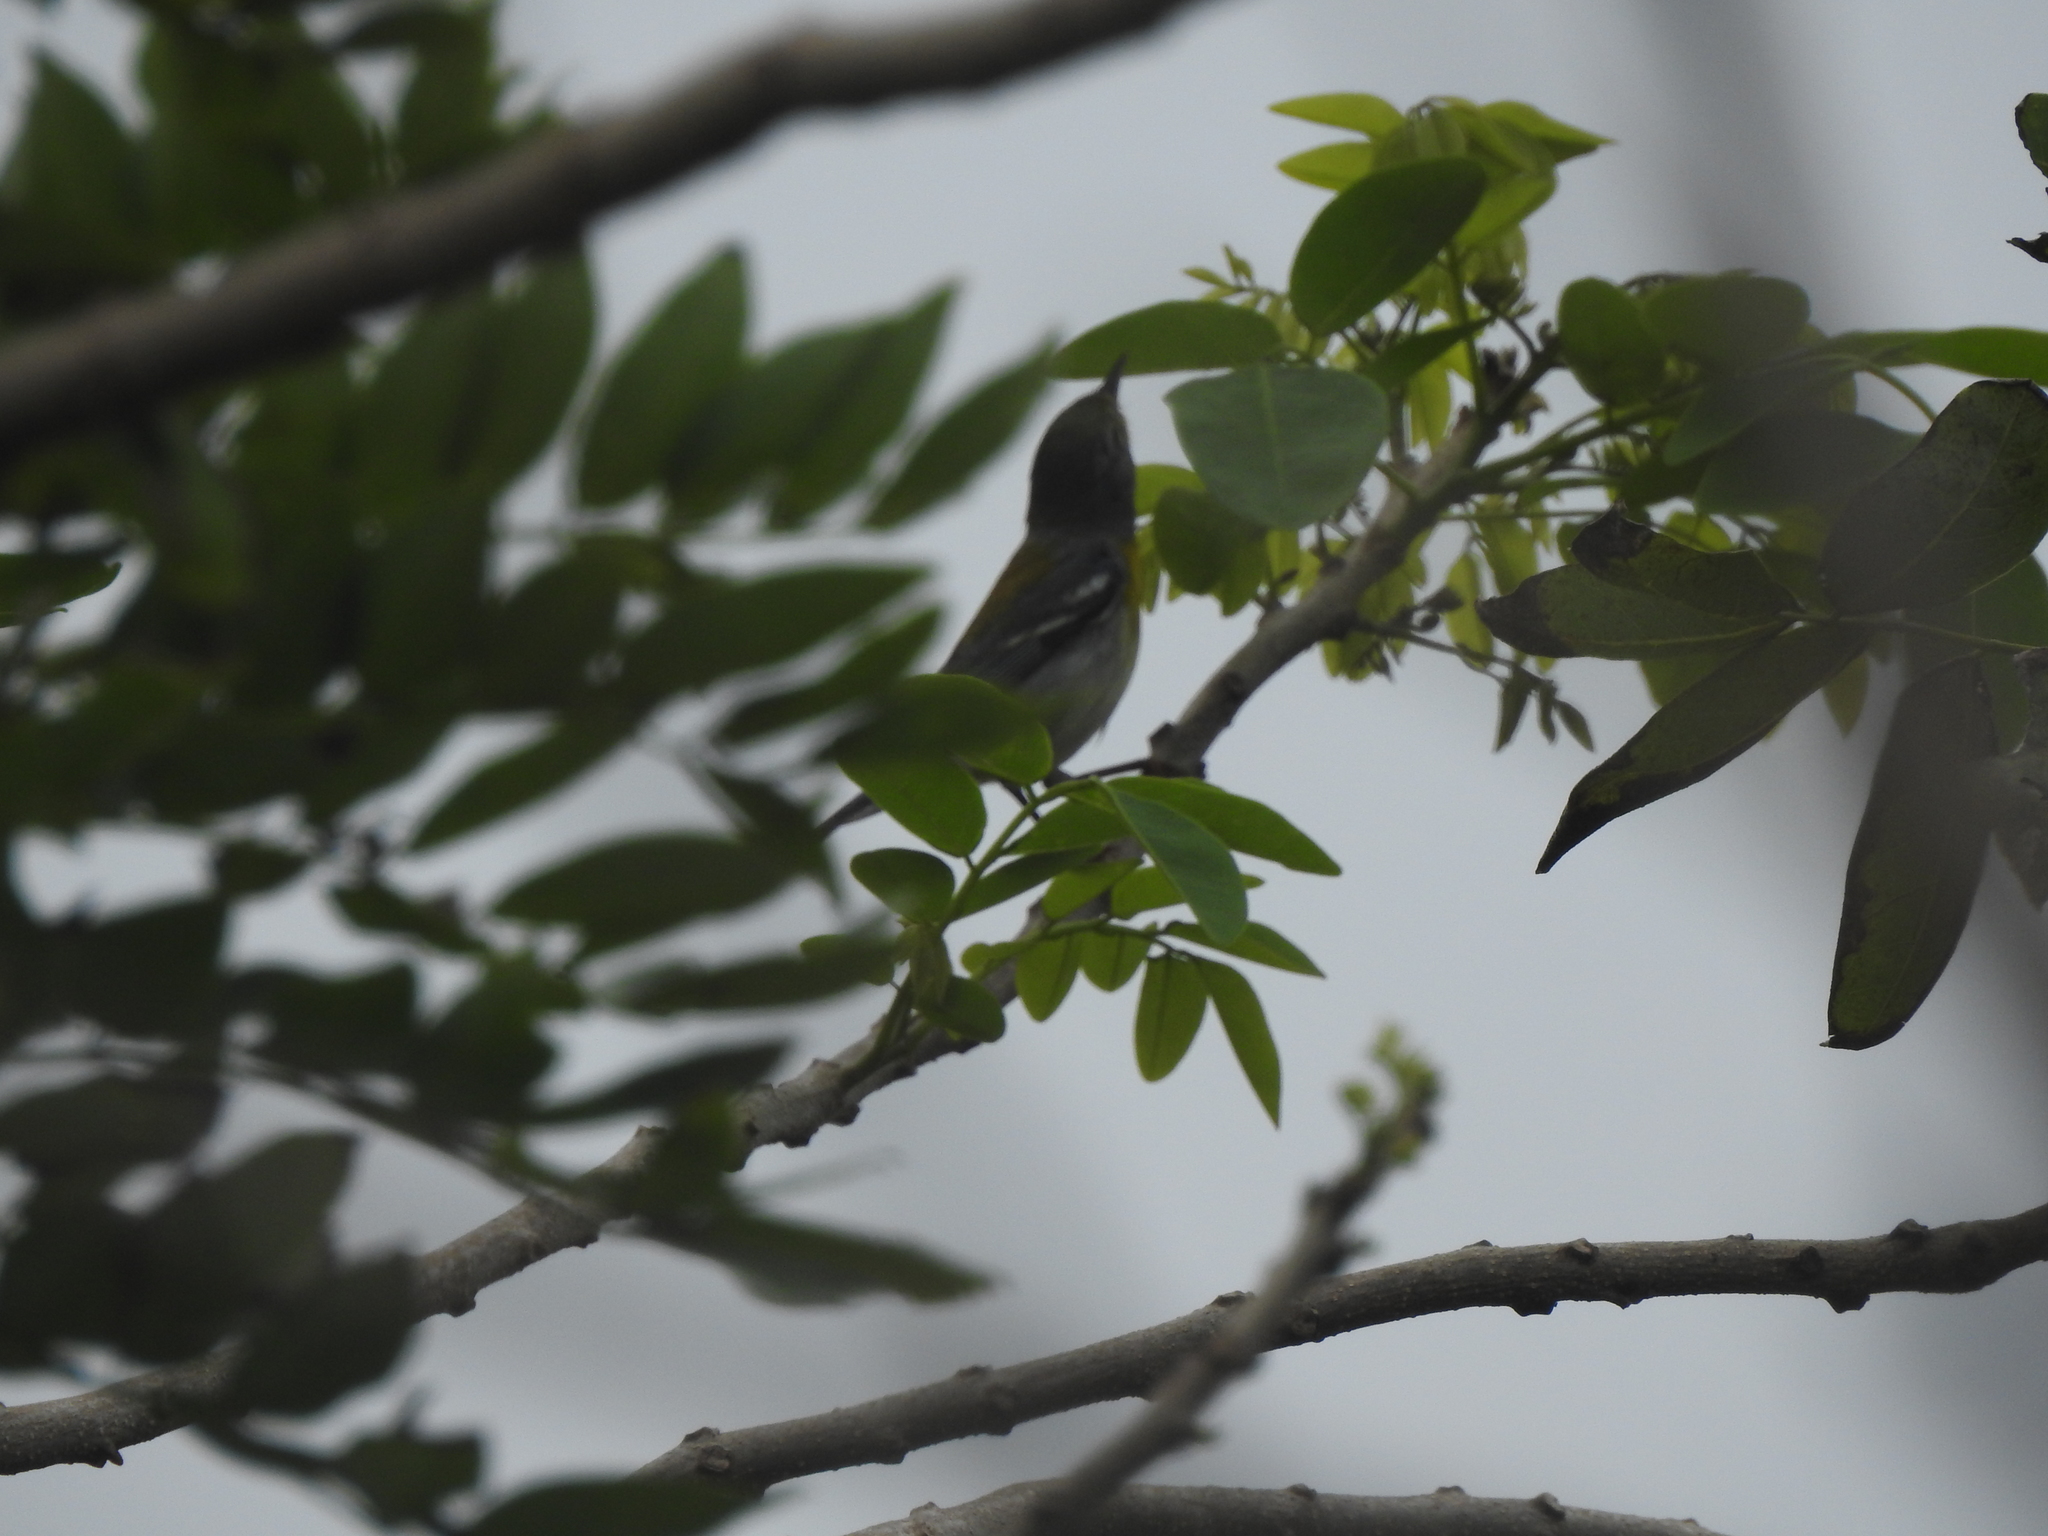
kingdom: Animalia
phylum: Chordata
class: Aves
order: Passeriformes
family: Parulidae
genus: Setophaga
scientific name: Setophaga americana
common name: Northern parula
